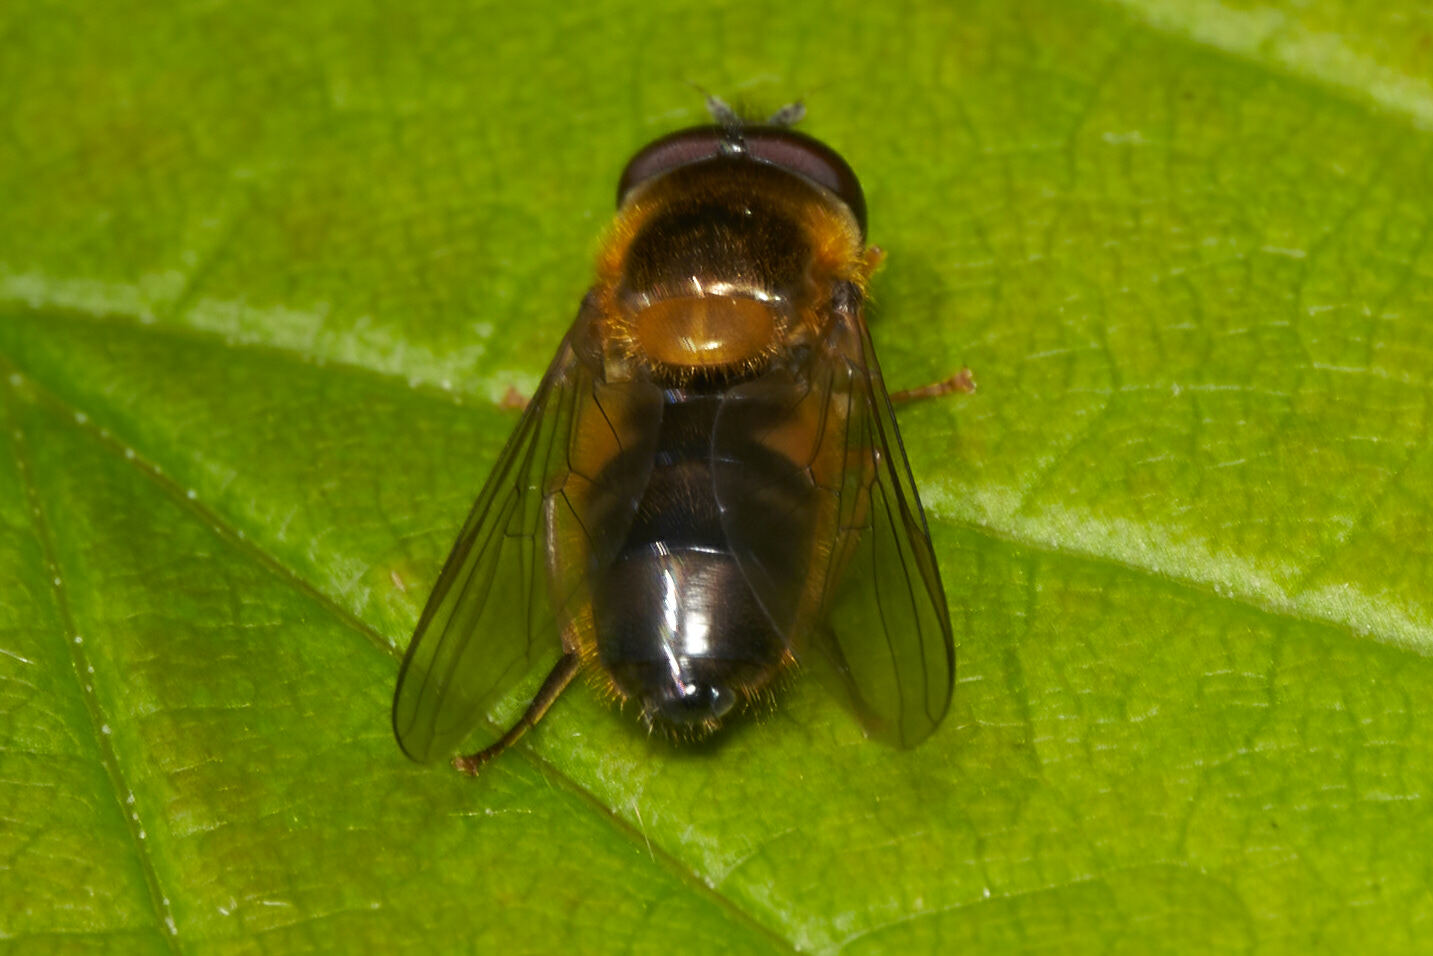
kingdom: Animalia
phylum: Arthropoda
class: Insecta
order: Diptera
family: Syrphidae
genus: Epistrophe
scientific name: Epistrophe eligans
